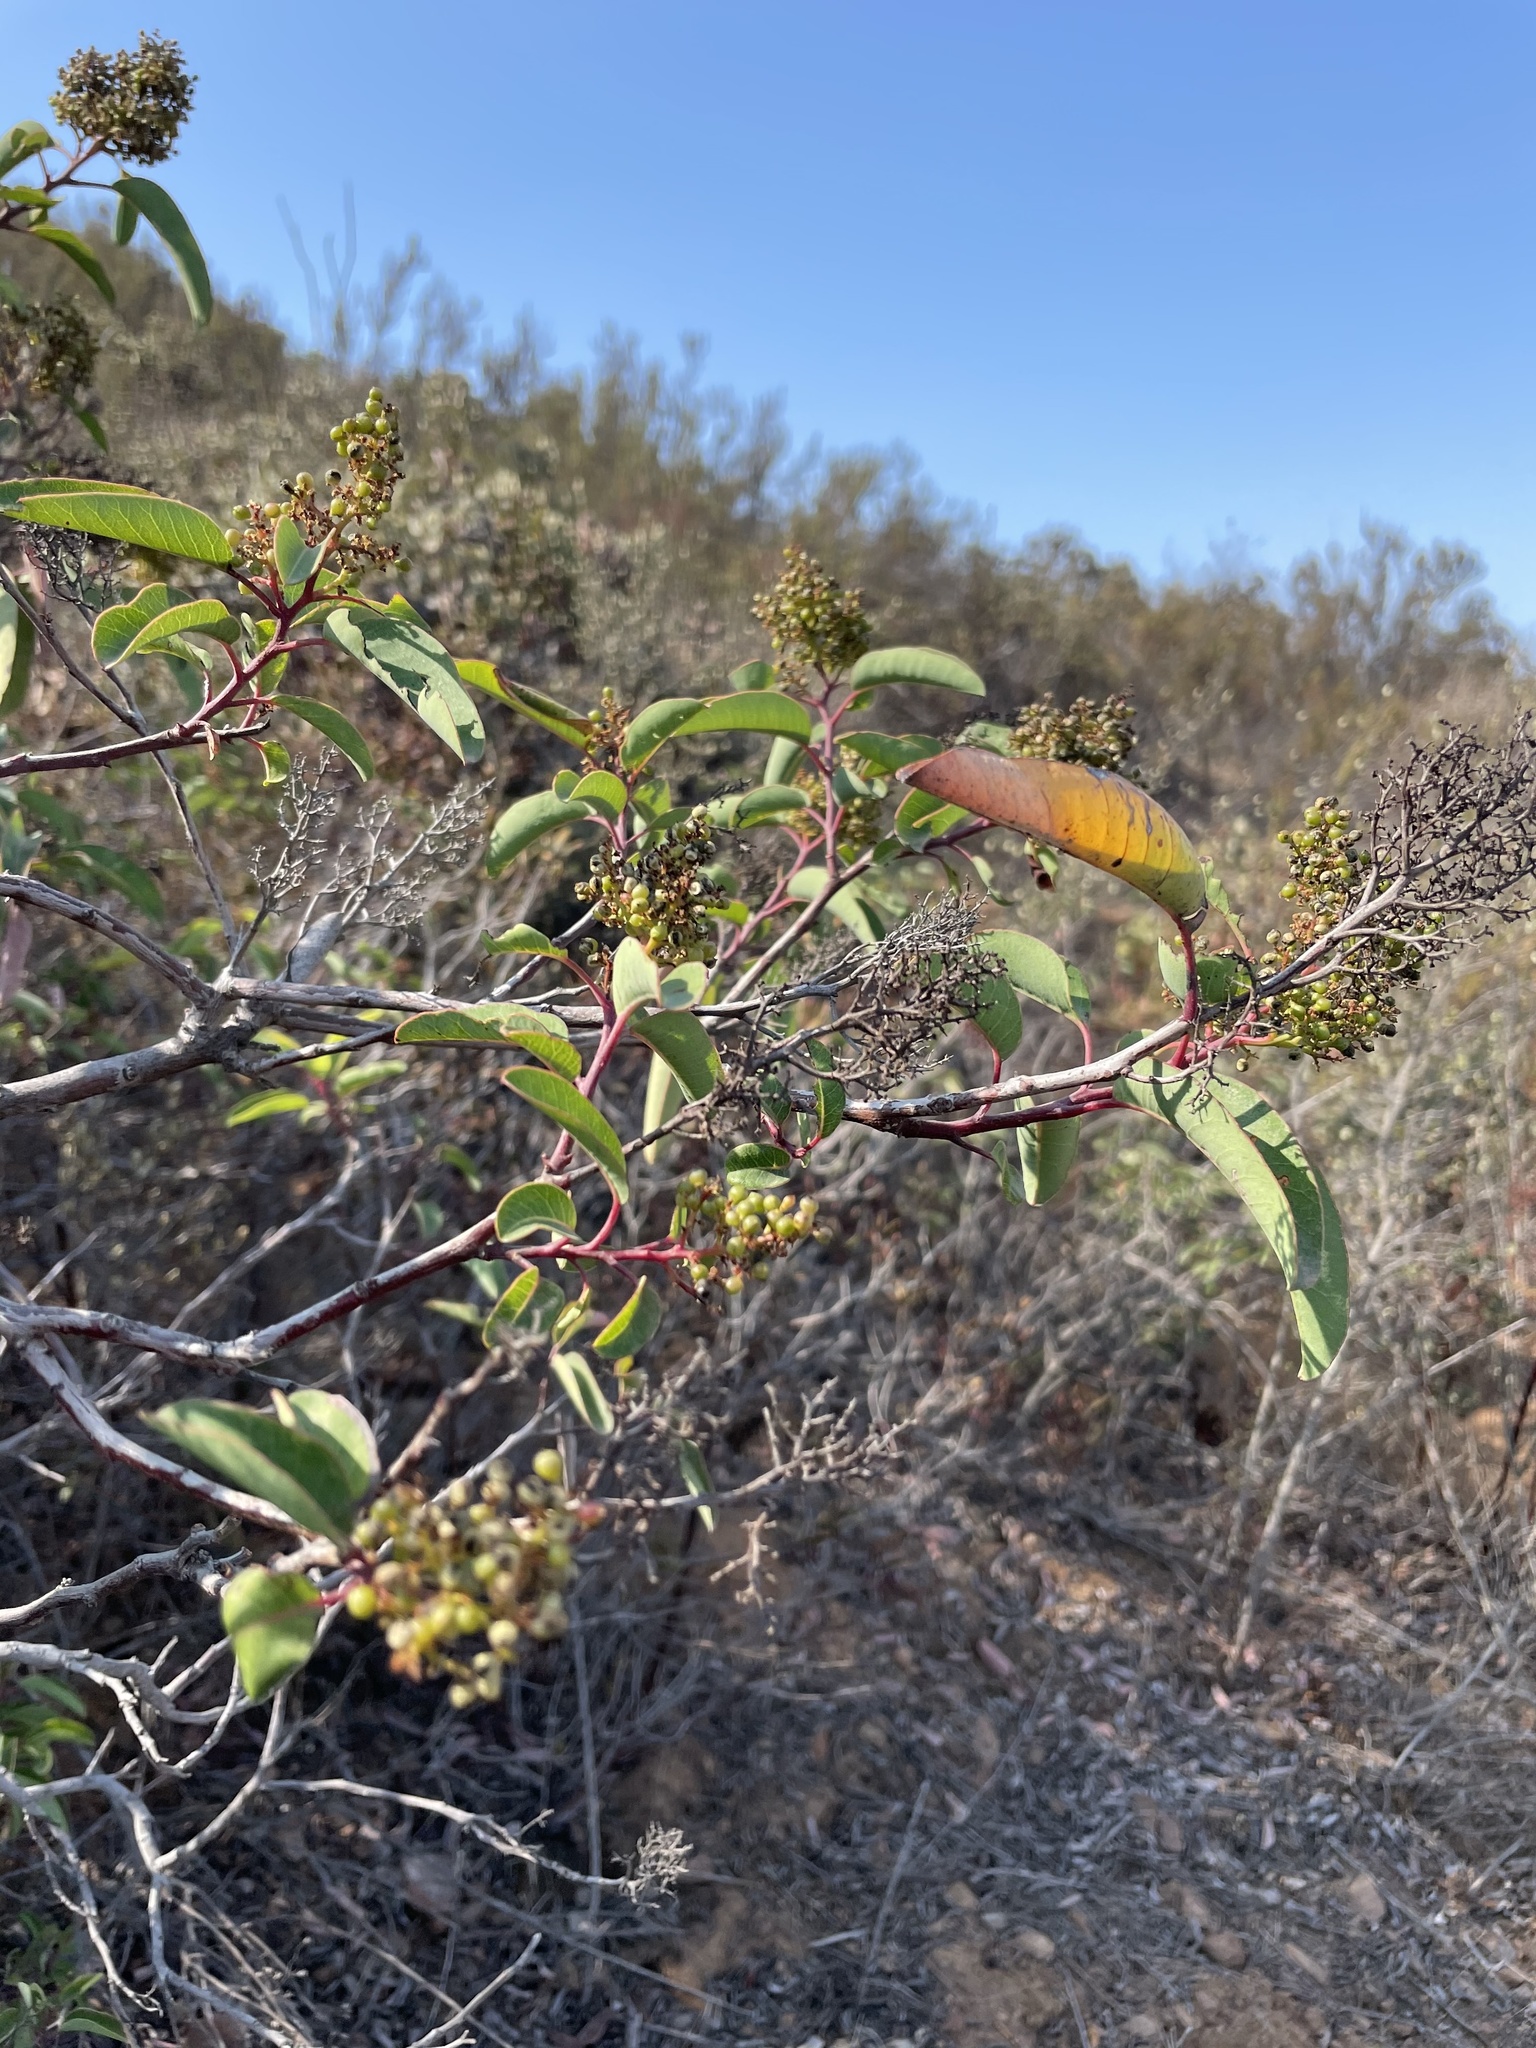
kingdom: Plantae
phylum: Tracheophyta
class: Magnoliopsida
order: Sapindales
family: Anacardiaceae
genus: Malosma
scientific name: Malosma laurina
